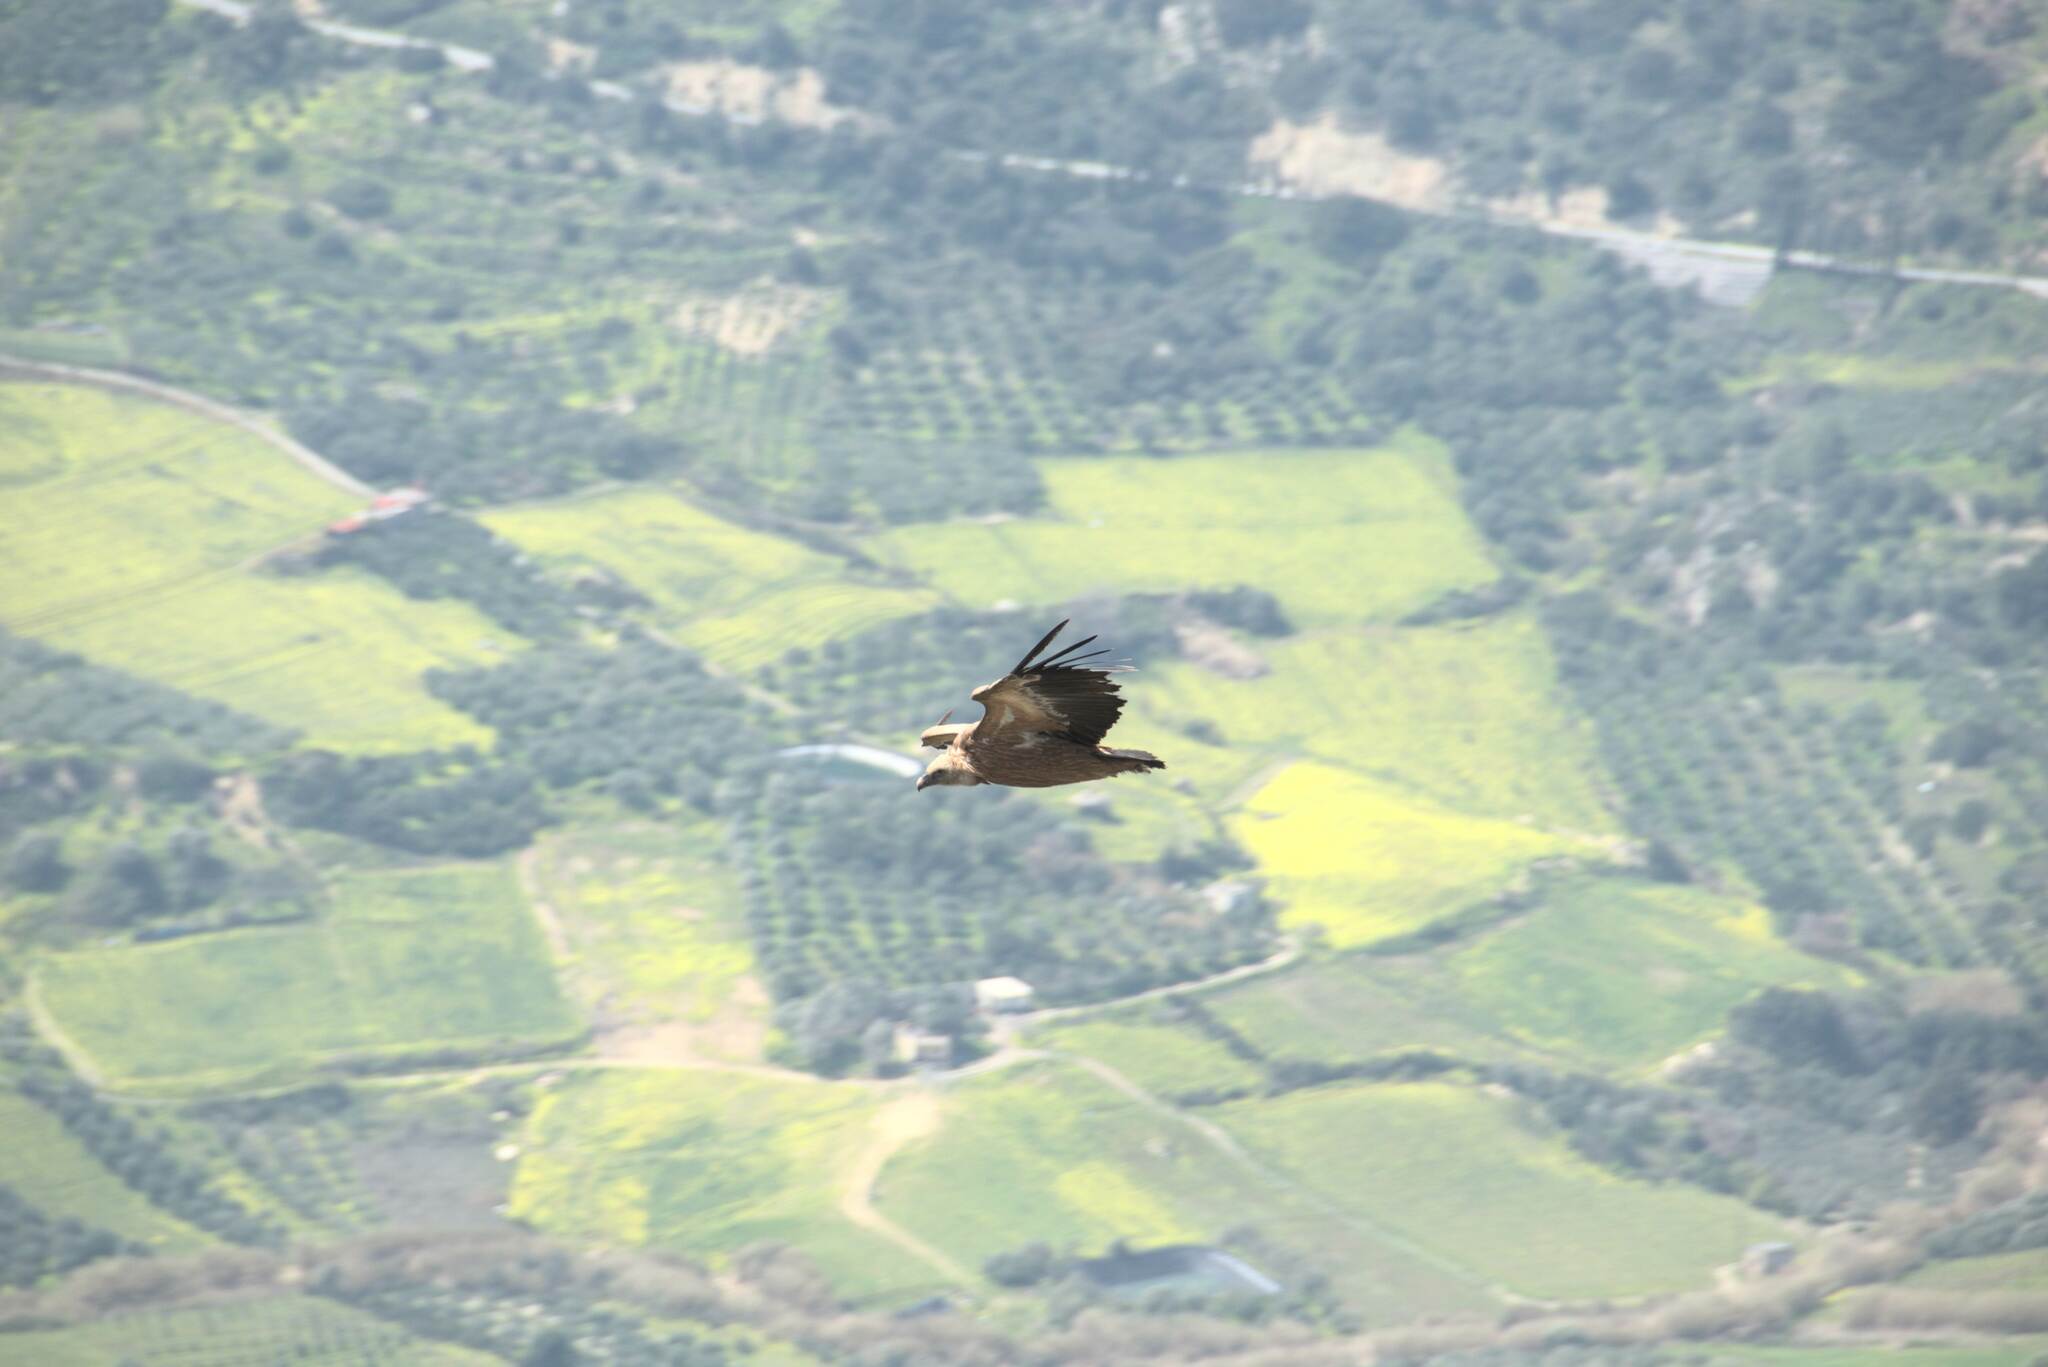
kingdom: Animalia
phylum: Chordata
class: Aves
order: Accipitriformes
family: Accipitridae
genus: Gyps
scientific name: Gyps fulvus
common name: Griffon vulture
